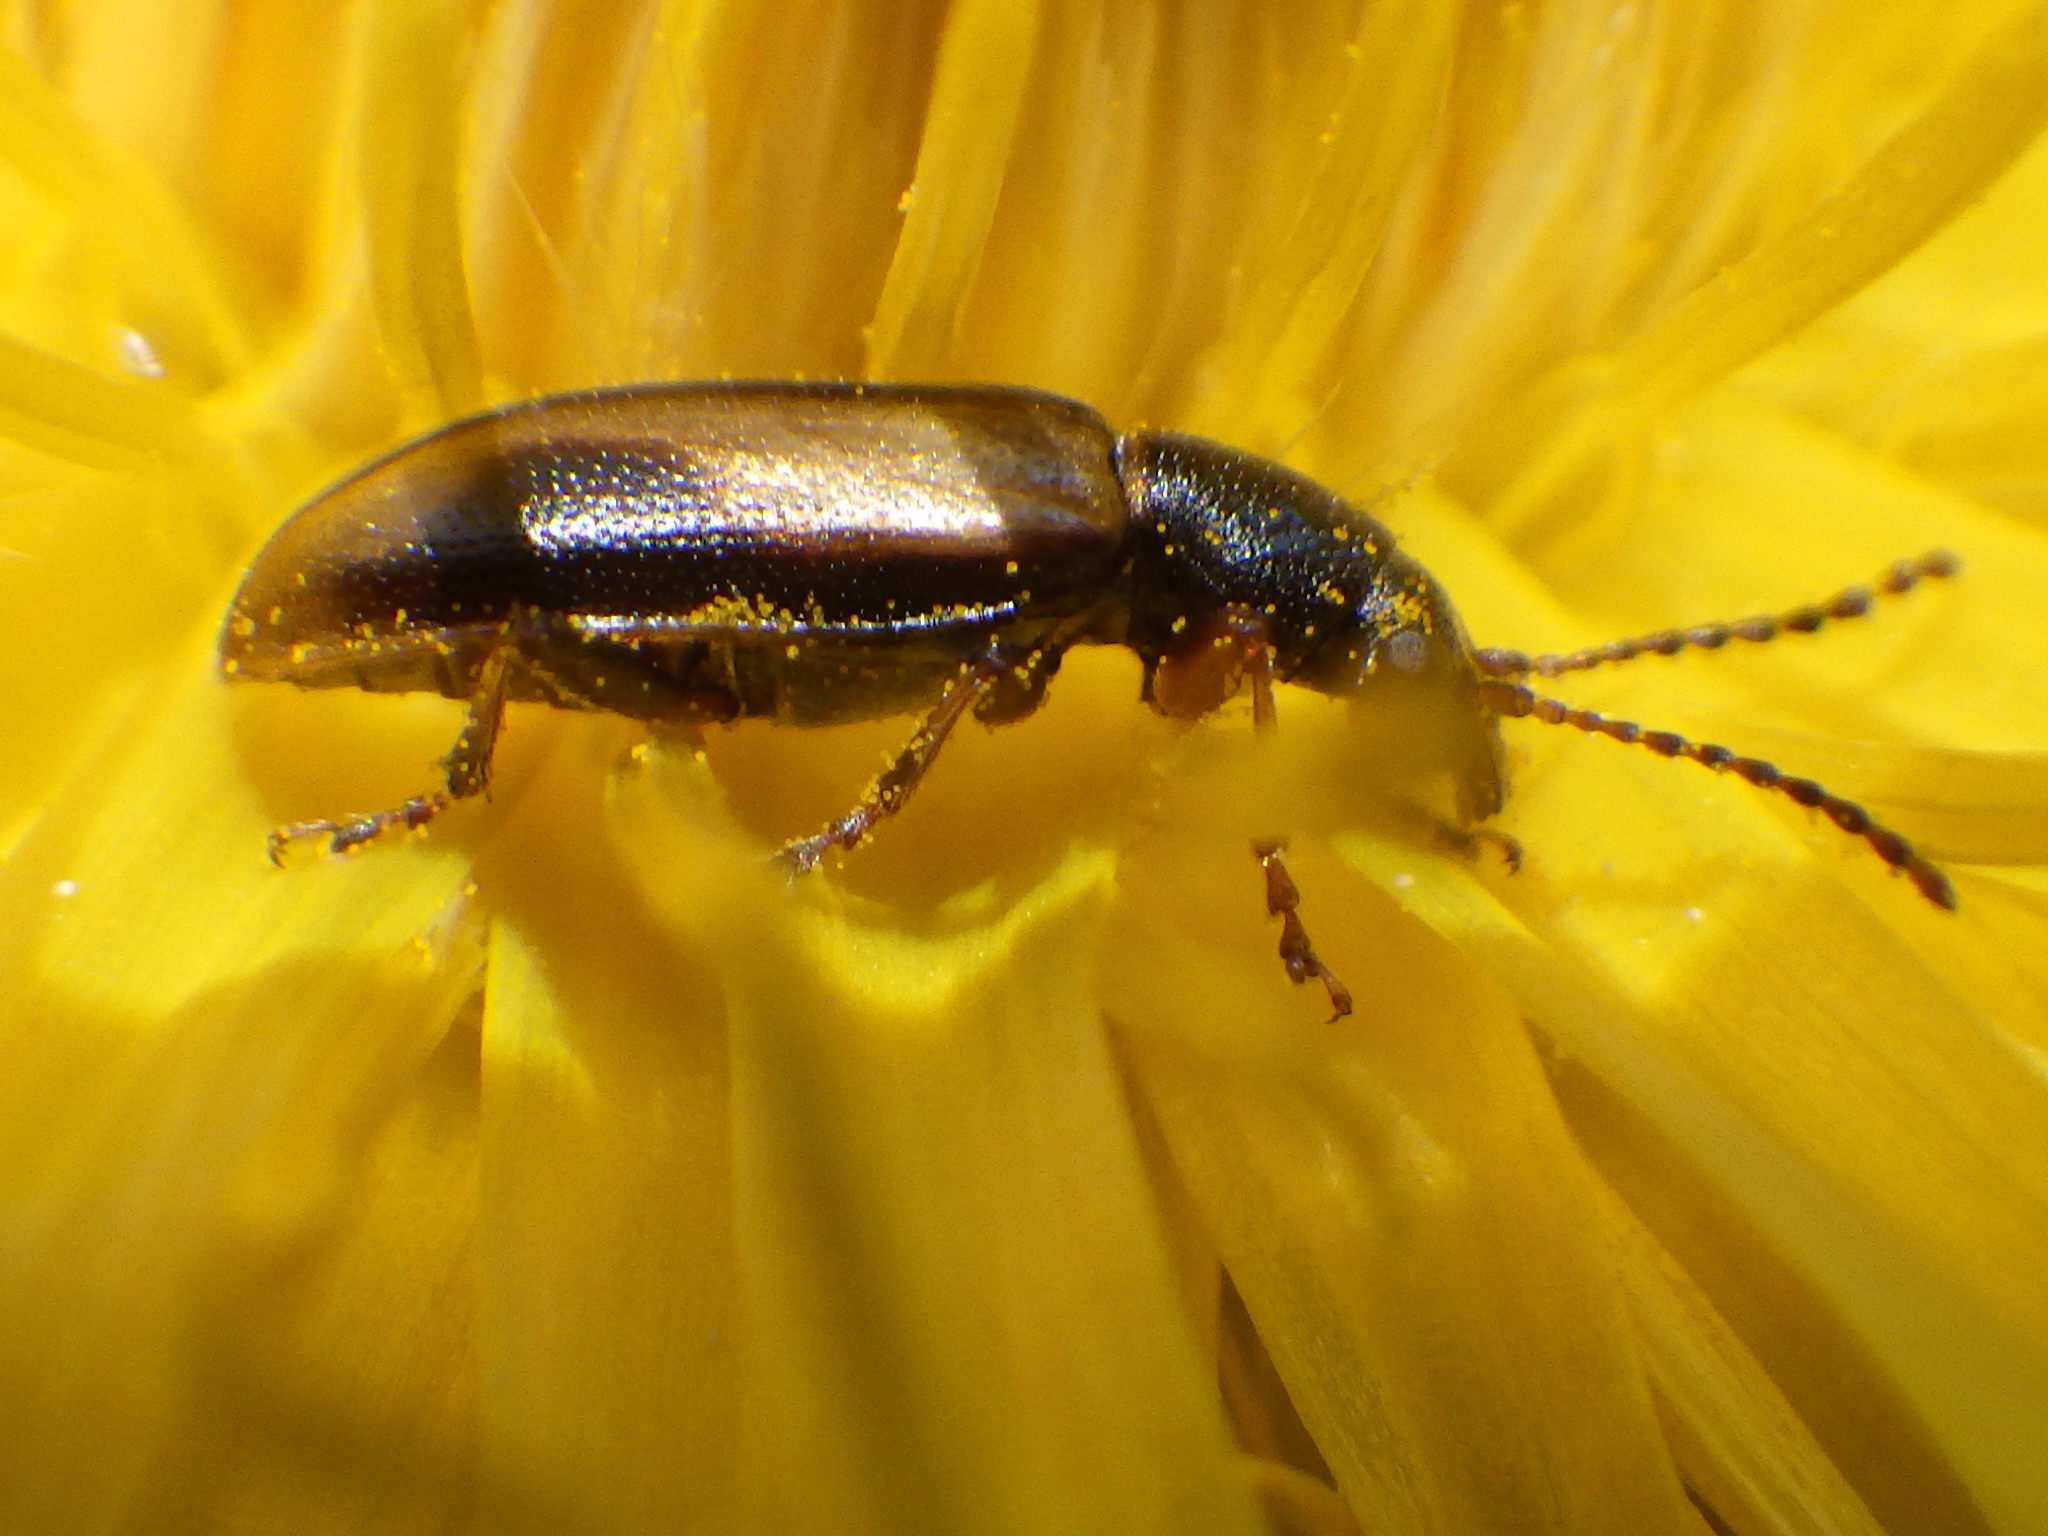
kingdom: Animalia
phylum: Arthropoda
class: Insecta
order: Coleoptera
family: Orsodacnidae
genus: Orsodacne
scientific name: Orsodacne atra
